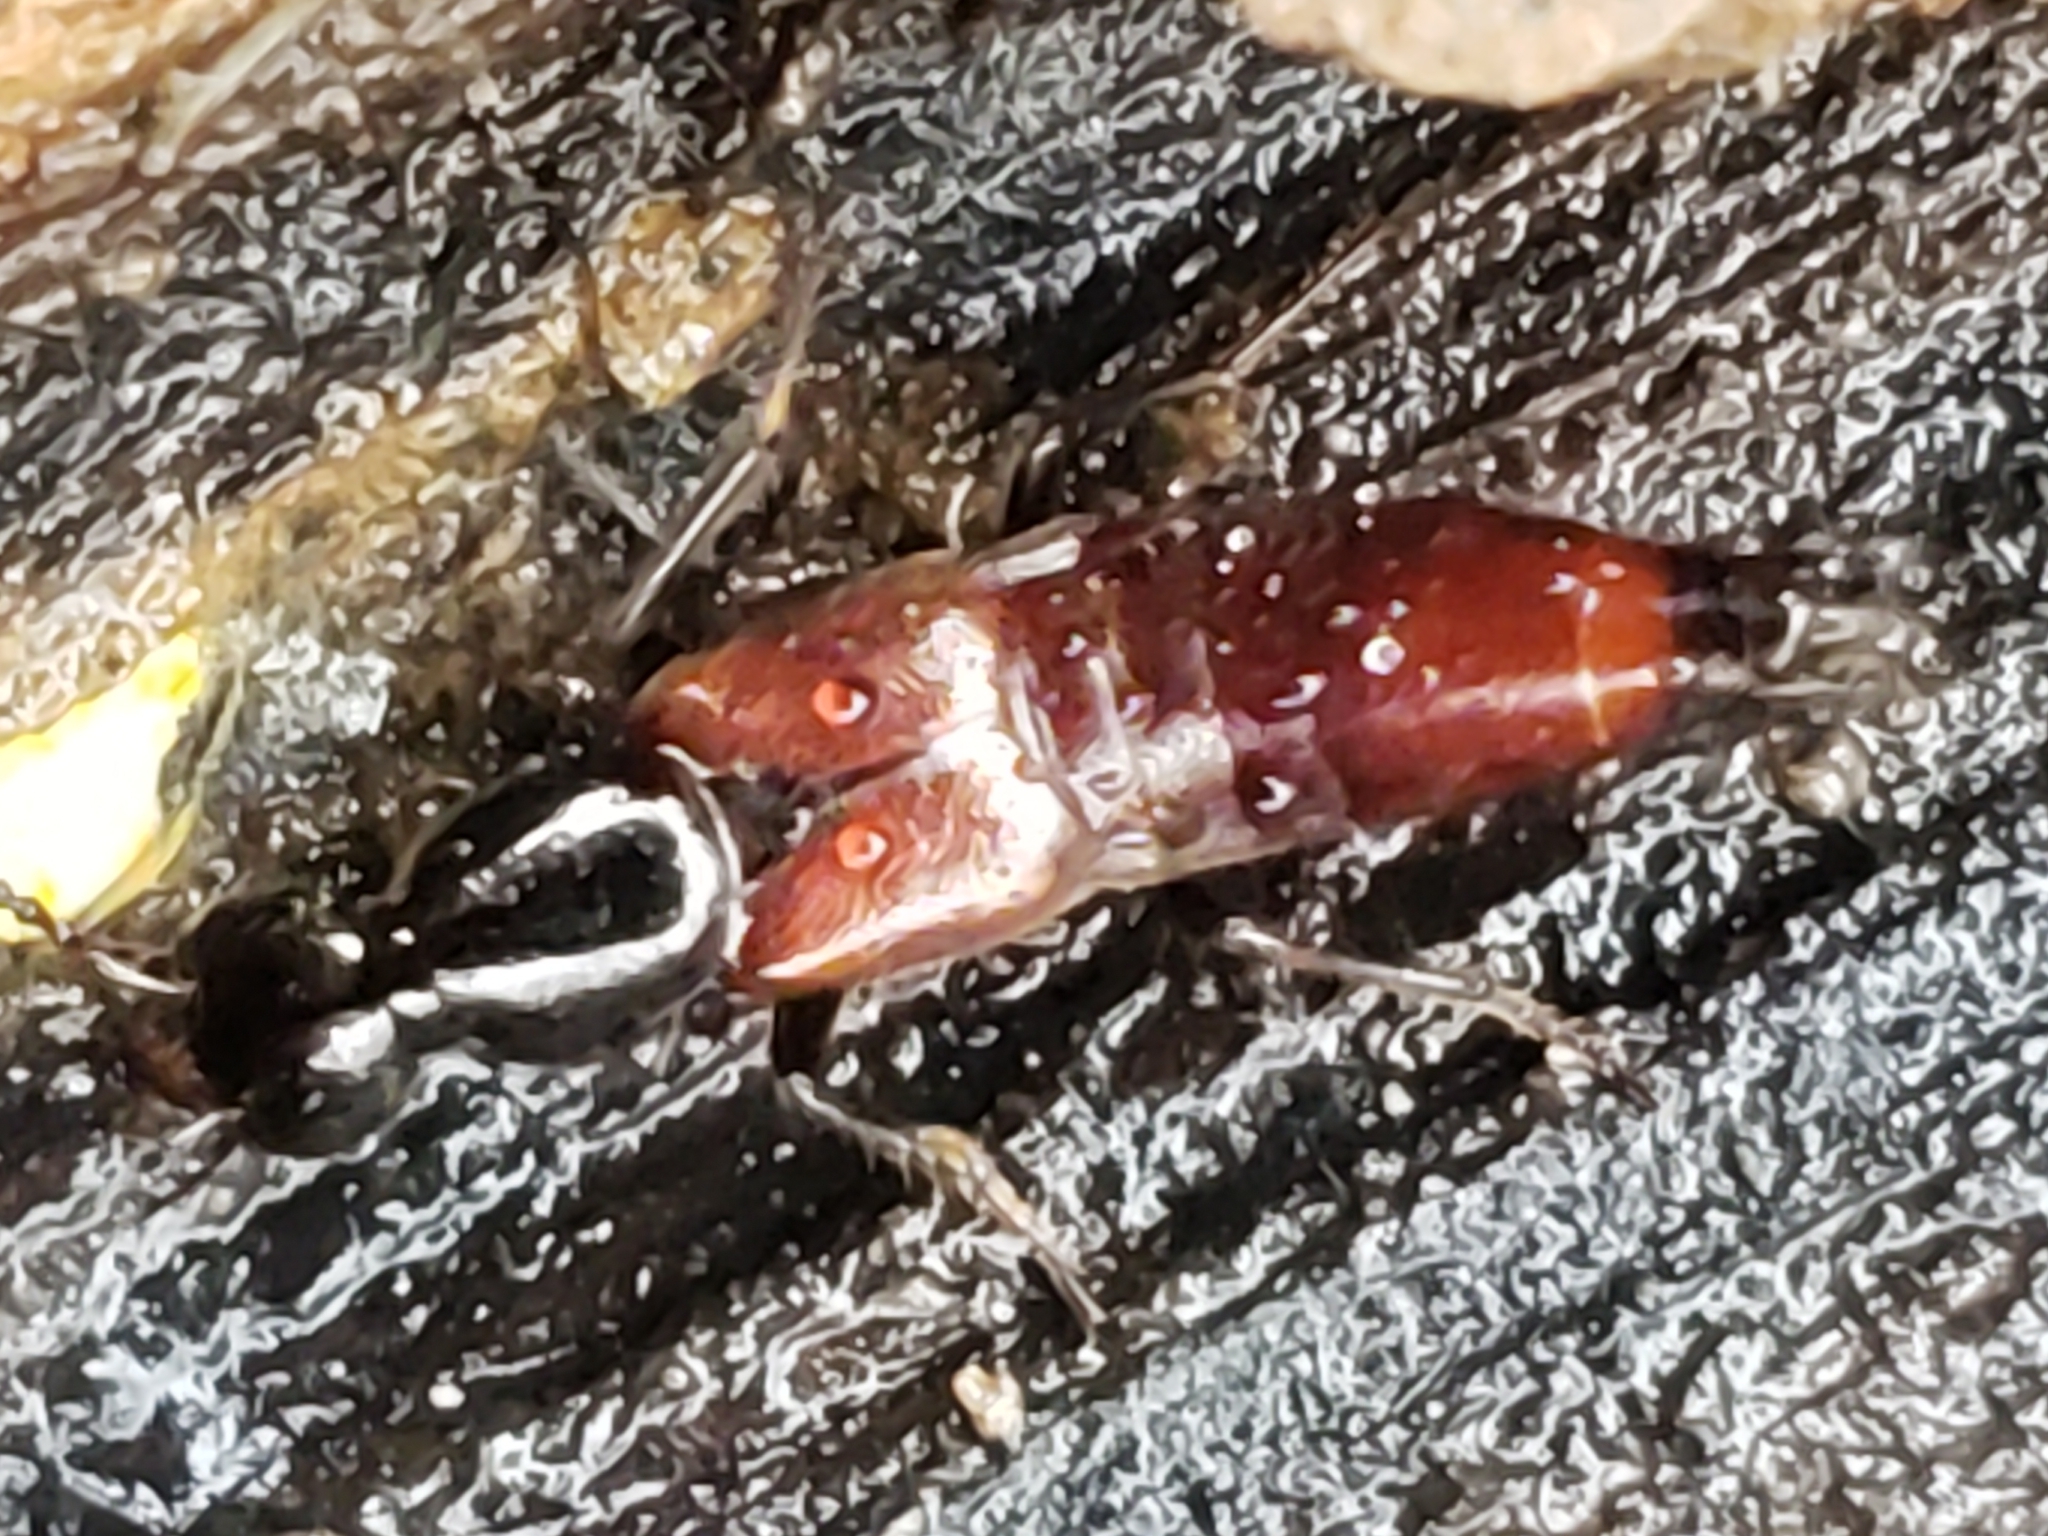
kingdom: Animalia
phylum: Arthropoda
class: Insecta
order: Coleoptera
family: Staphylinidae
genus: Hesperus
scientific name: Hesperus baltimorensis
